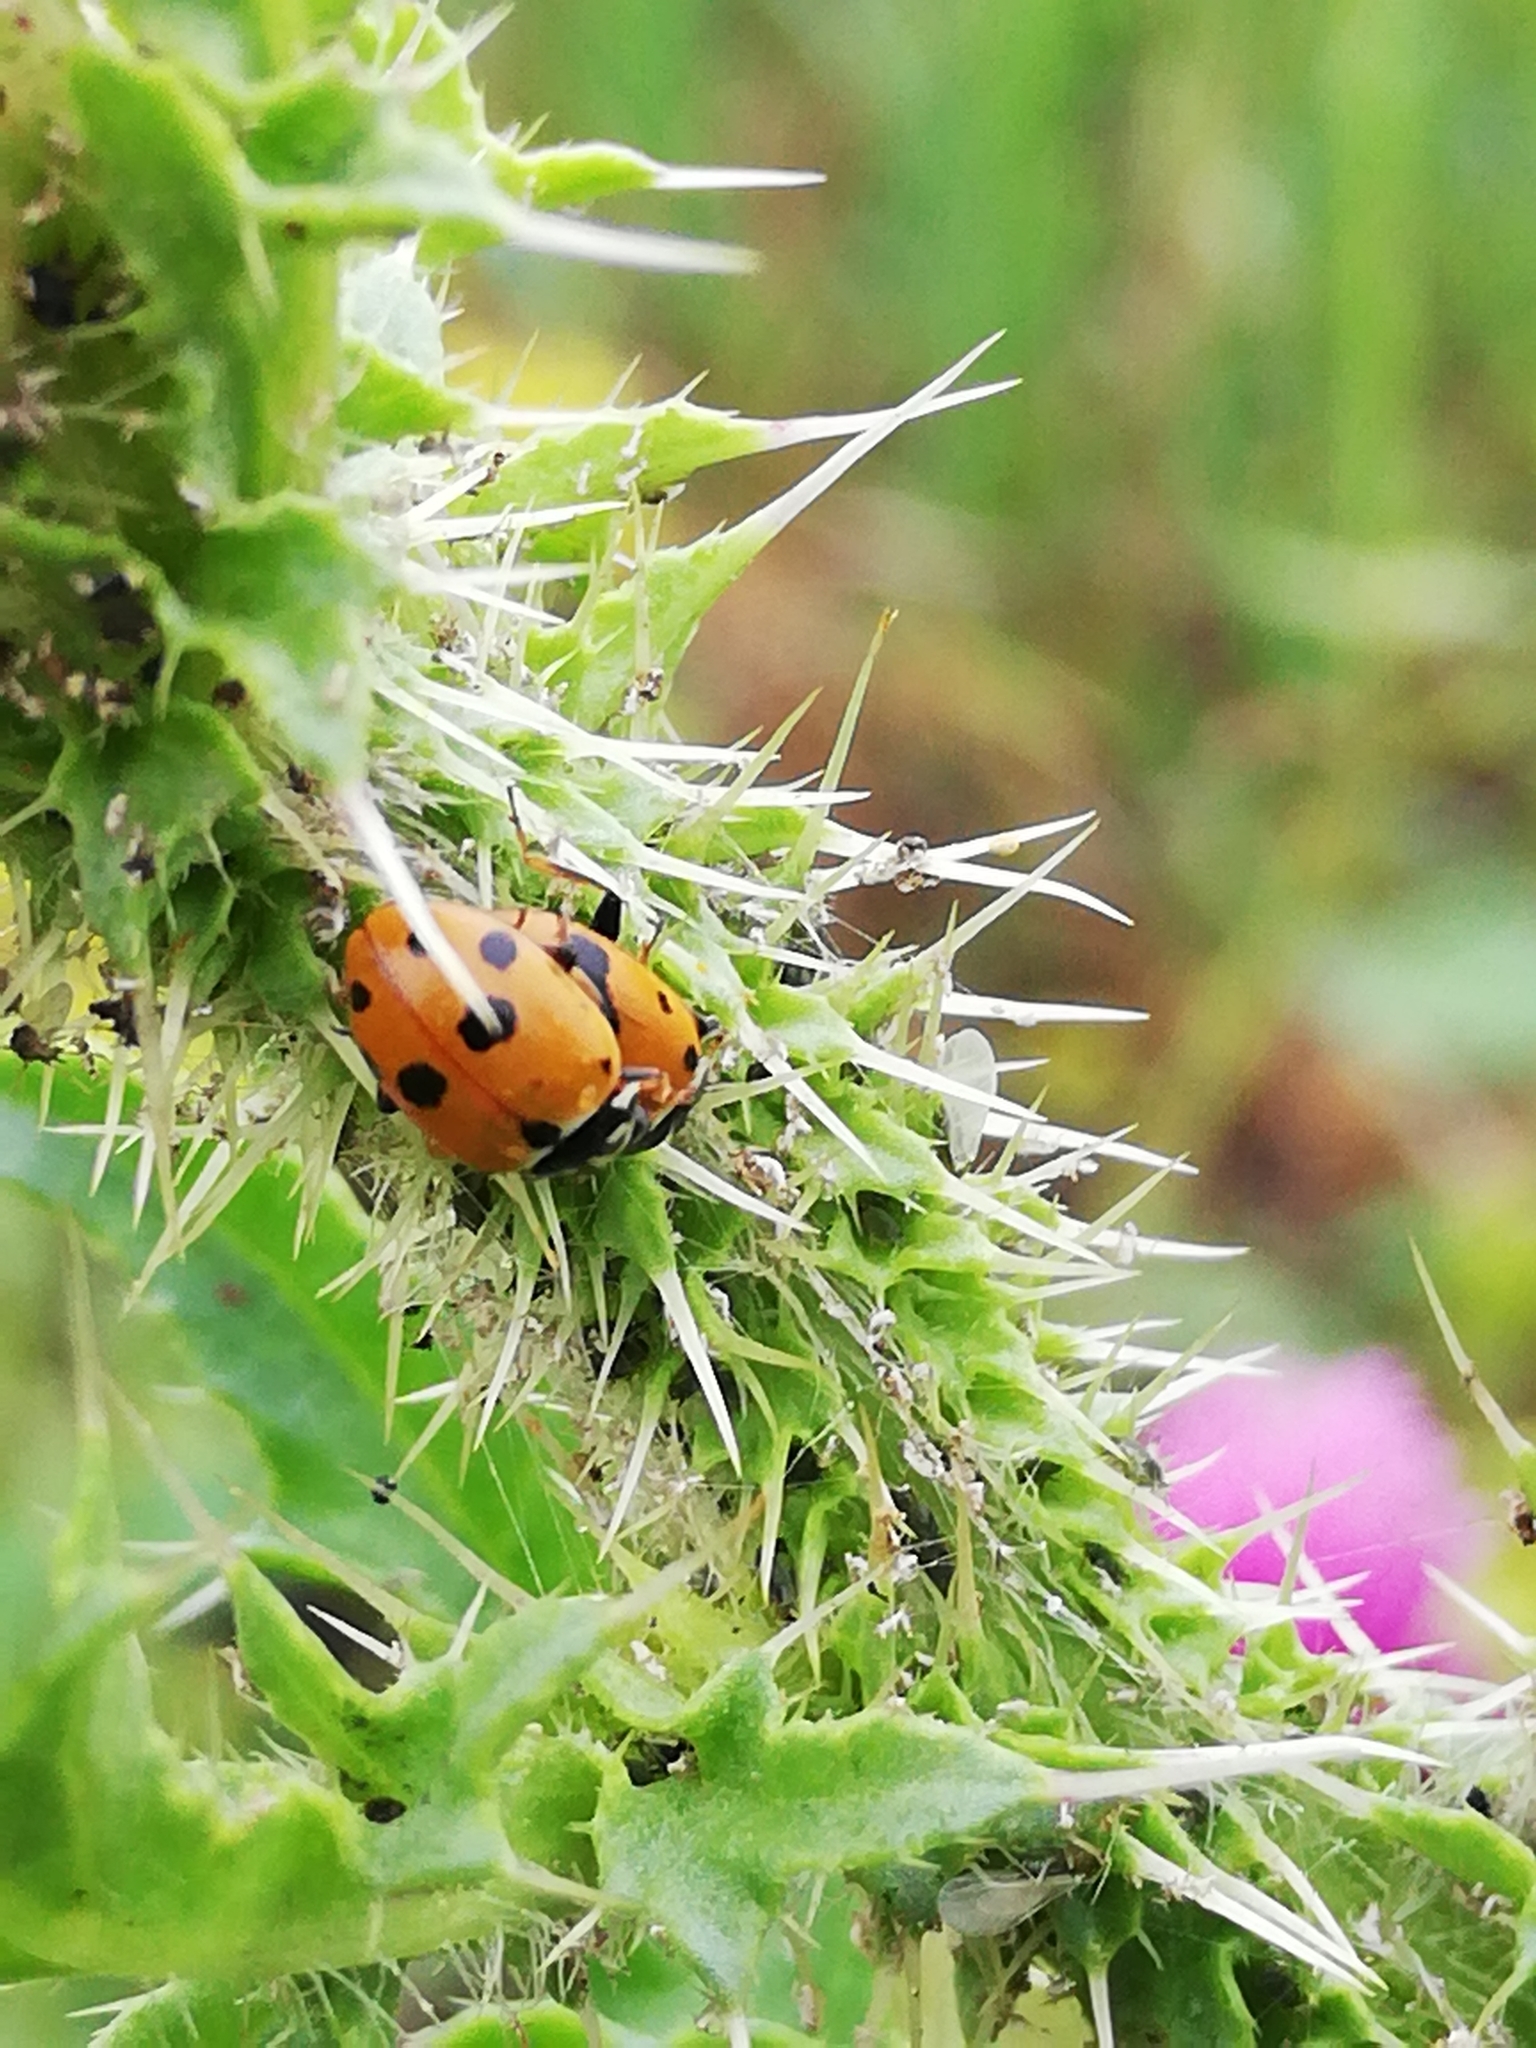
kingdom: Animalia
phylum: Arthropoda
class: Insecta
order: Coleoptera
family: Coccinellidae
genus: Hippodamia
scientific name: Hippodamia variegata
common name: Ladybird beetle
